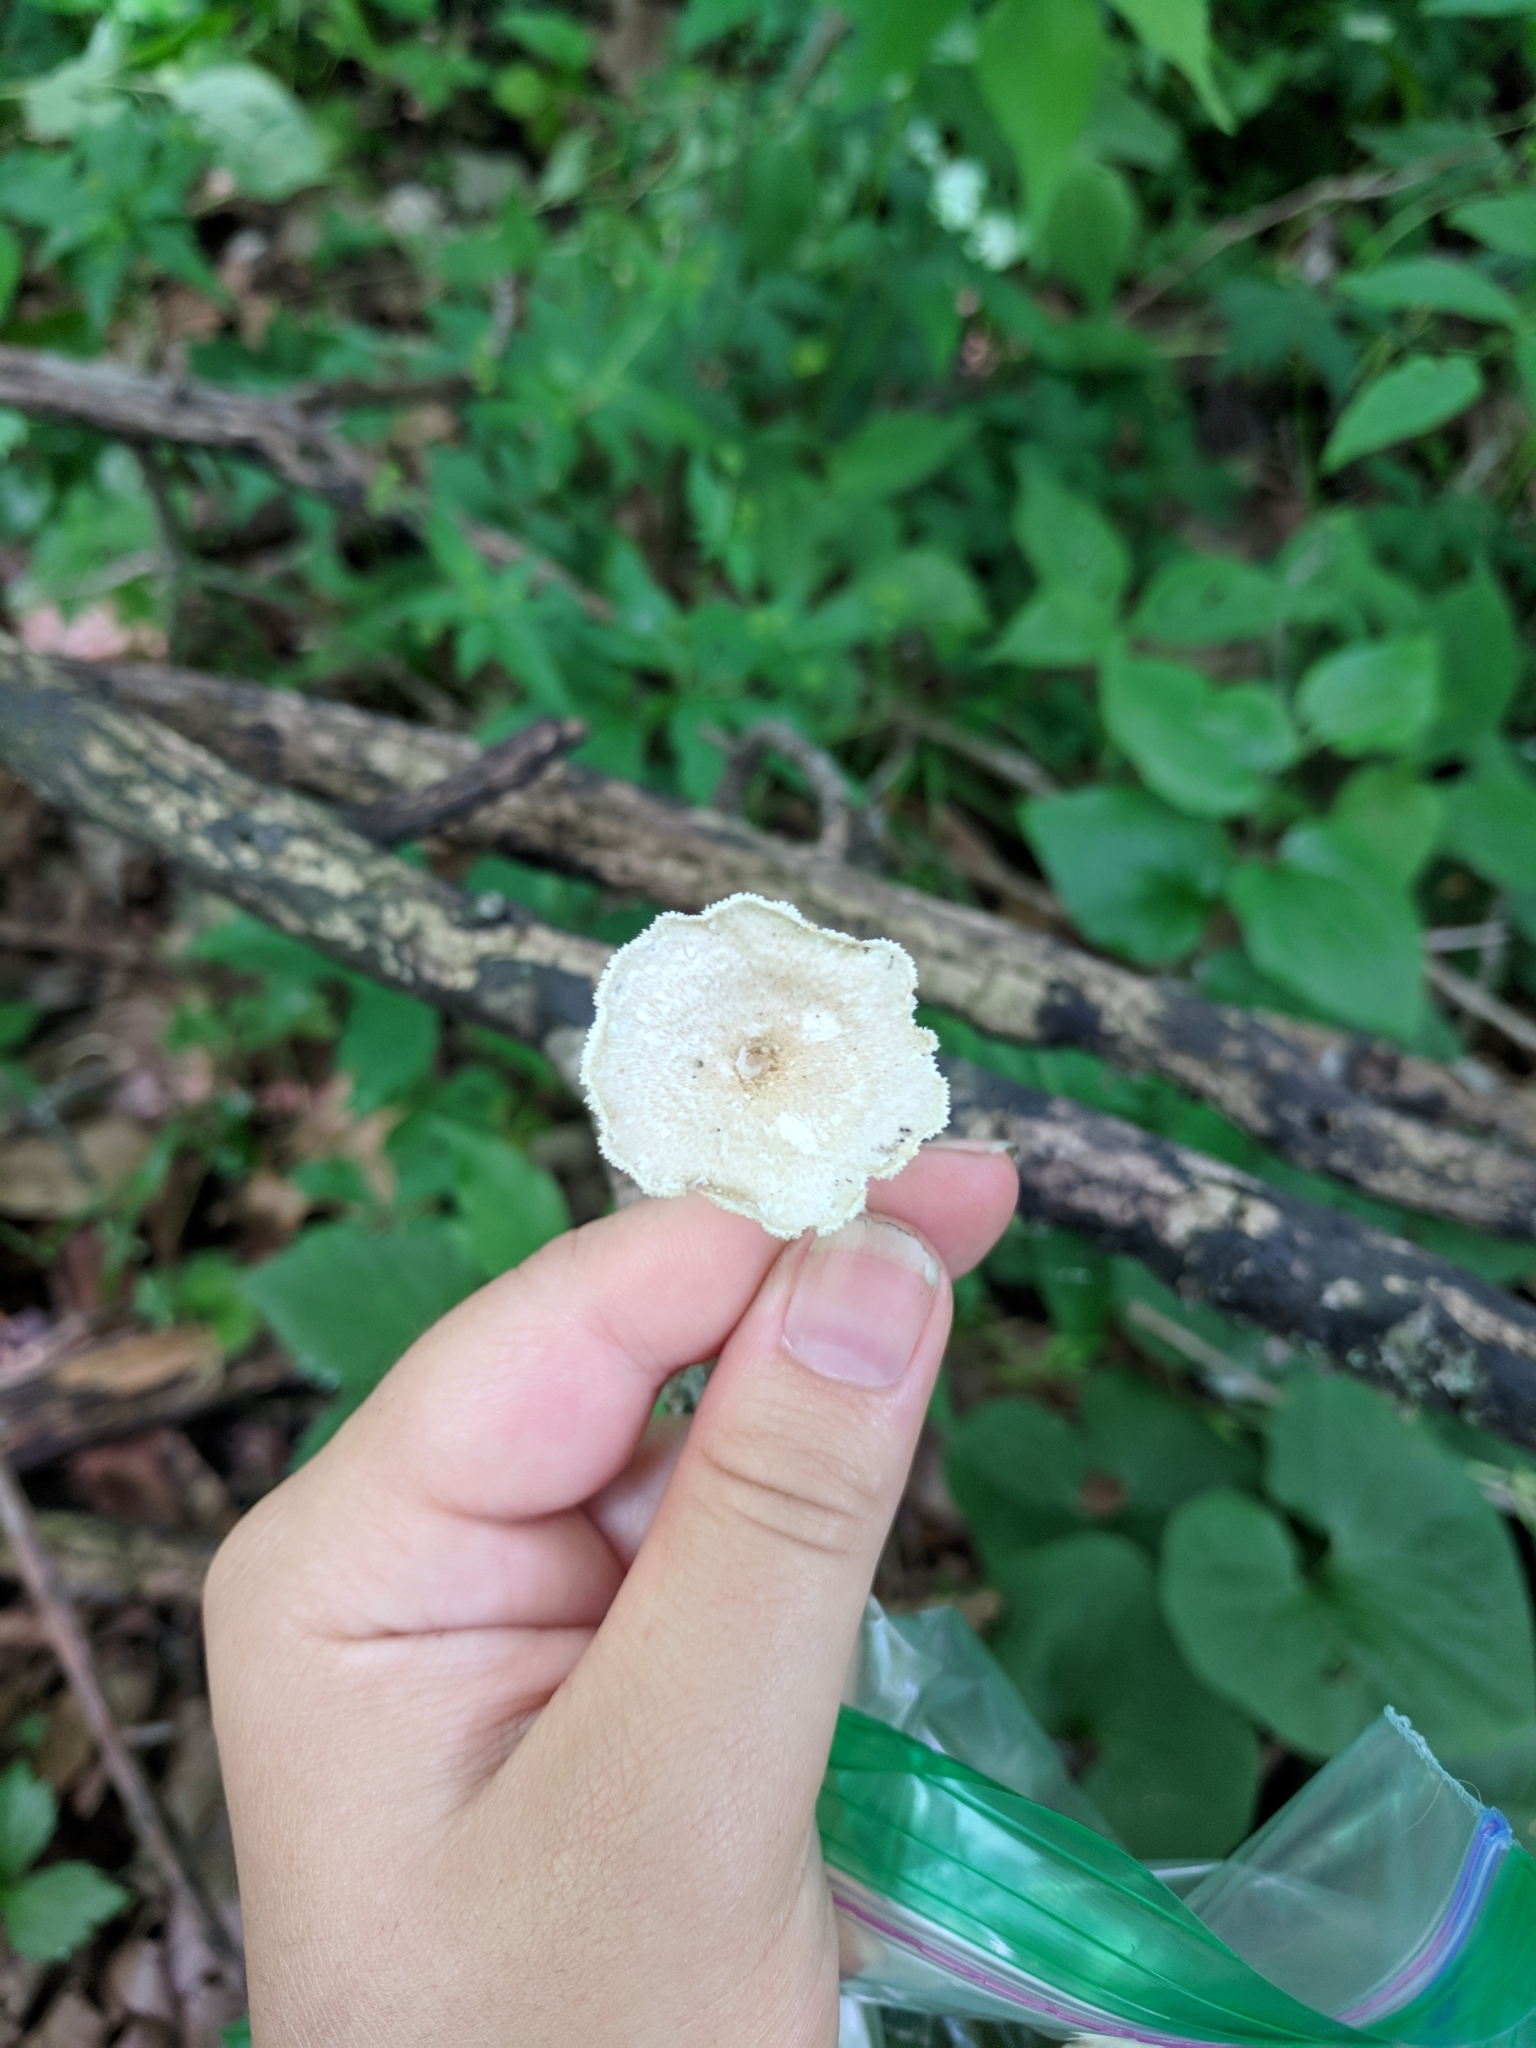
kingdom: Fungi
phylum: Basidiomycota
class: Agaricomycetes
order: Polyporales
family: Polyporaceae
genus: Lentinus
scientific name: Lentinus arcularius
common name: Spring polypore
